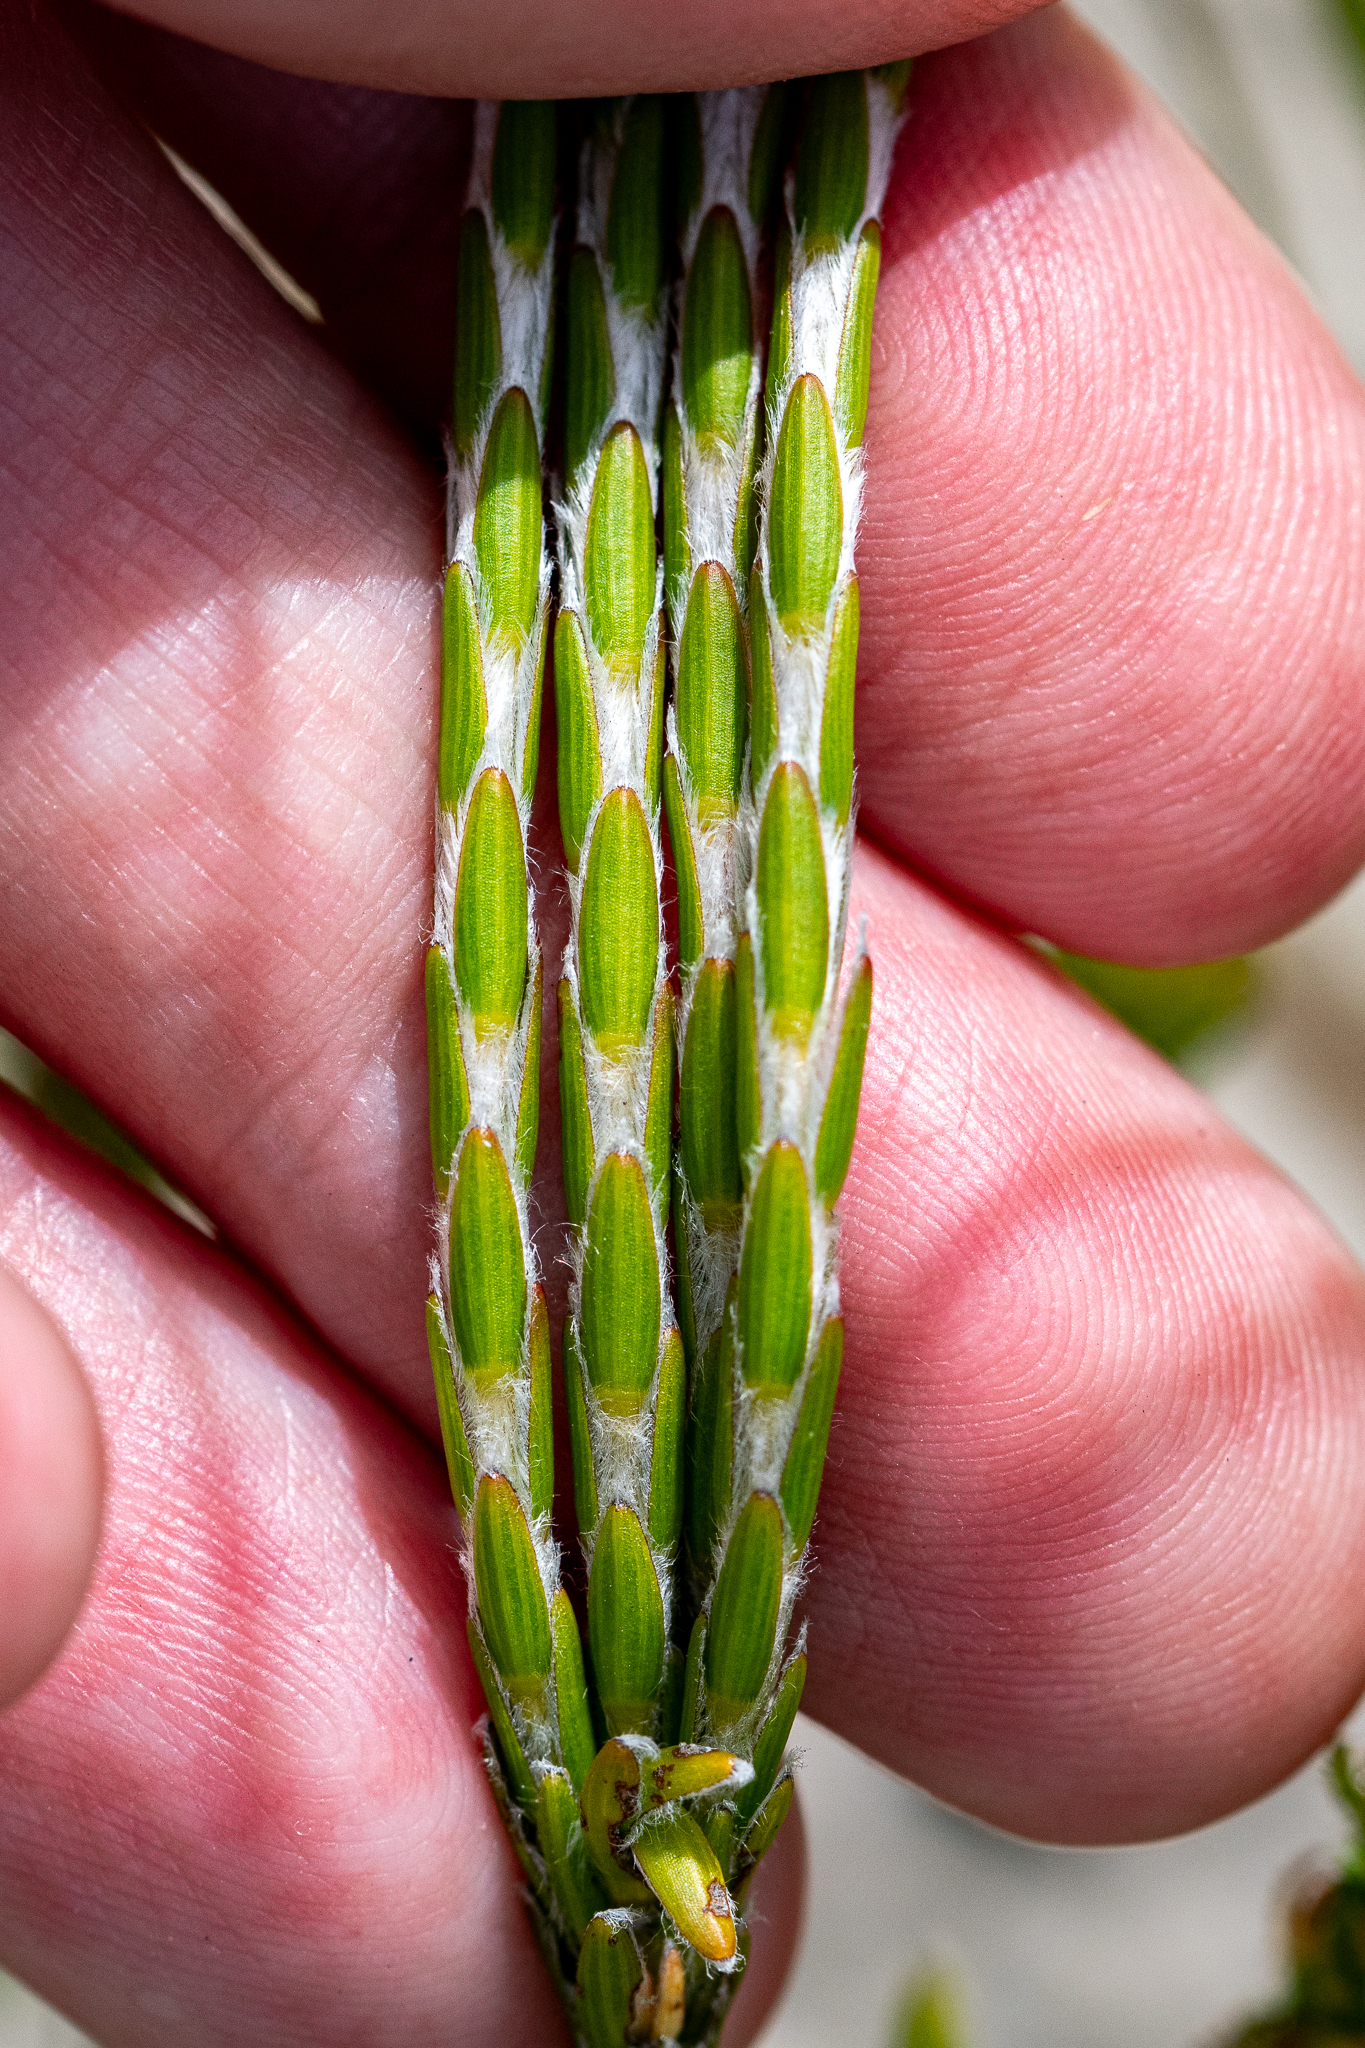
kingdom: Plantae
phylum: Tracheophyta
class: Magnoliopsida
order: Malvales
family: Thymelaeaceae
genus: Struthiola
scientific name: Struthiola ciliata
